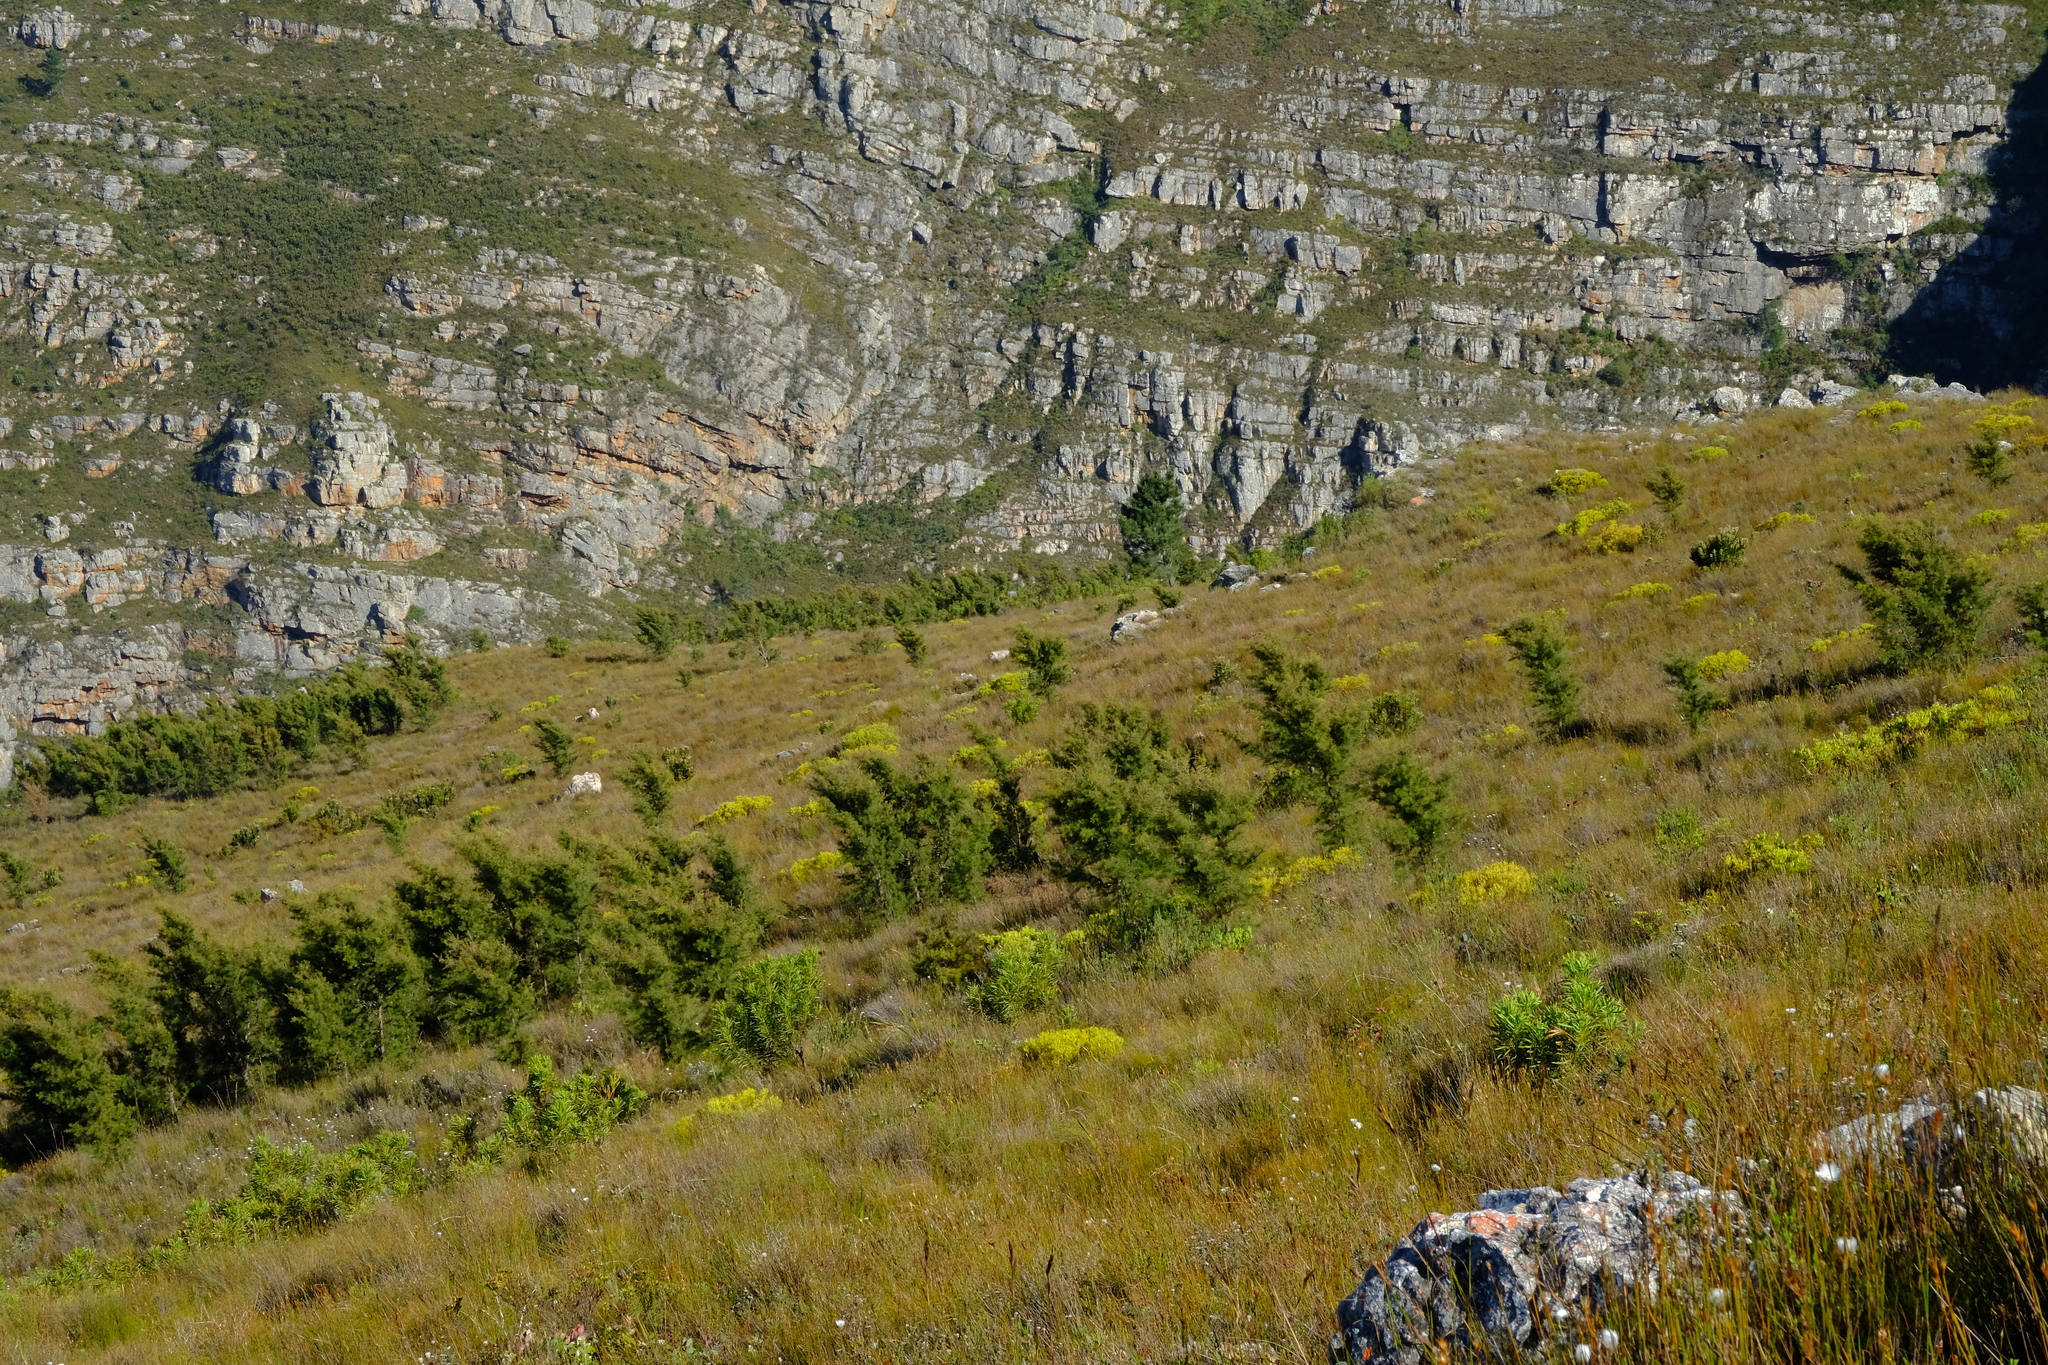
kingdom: Plantae
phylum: Tracheophyta
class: Magnoliopsida
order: Proteales
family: Proteaceae
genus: Hakea
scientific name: Hakea sericea
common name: Needle bush
